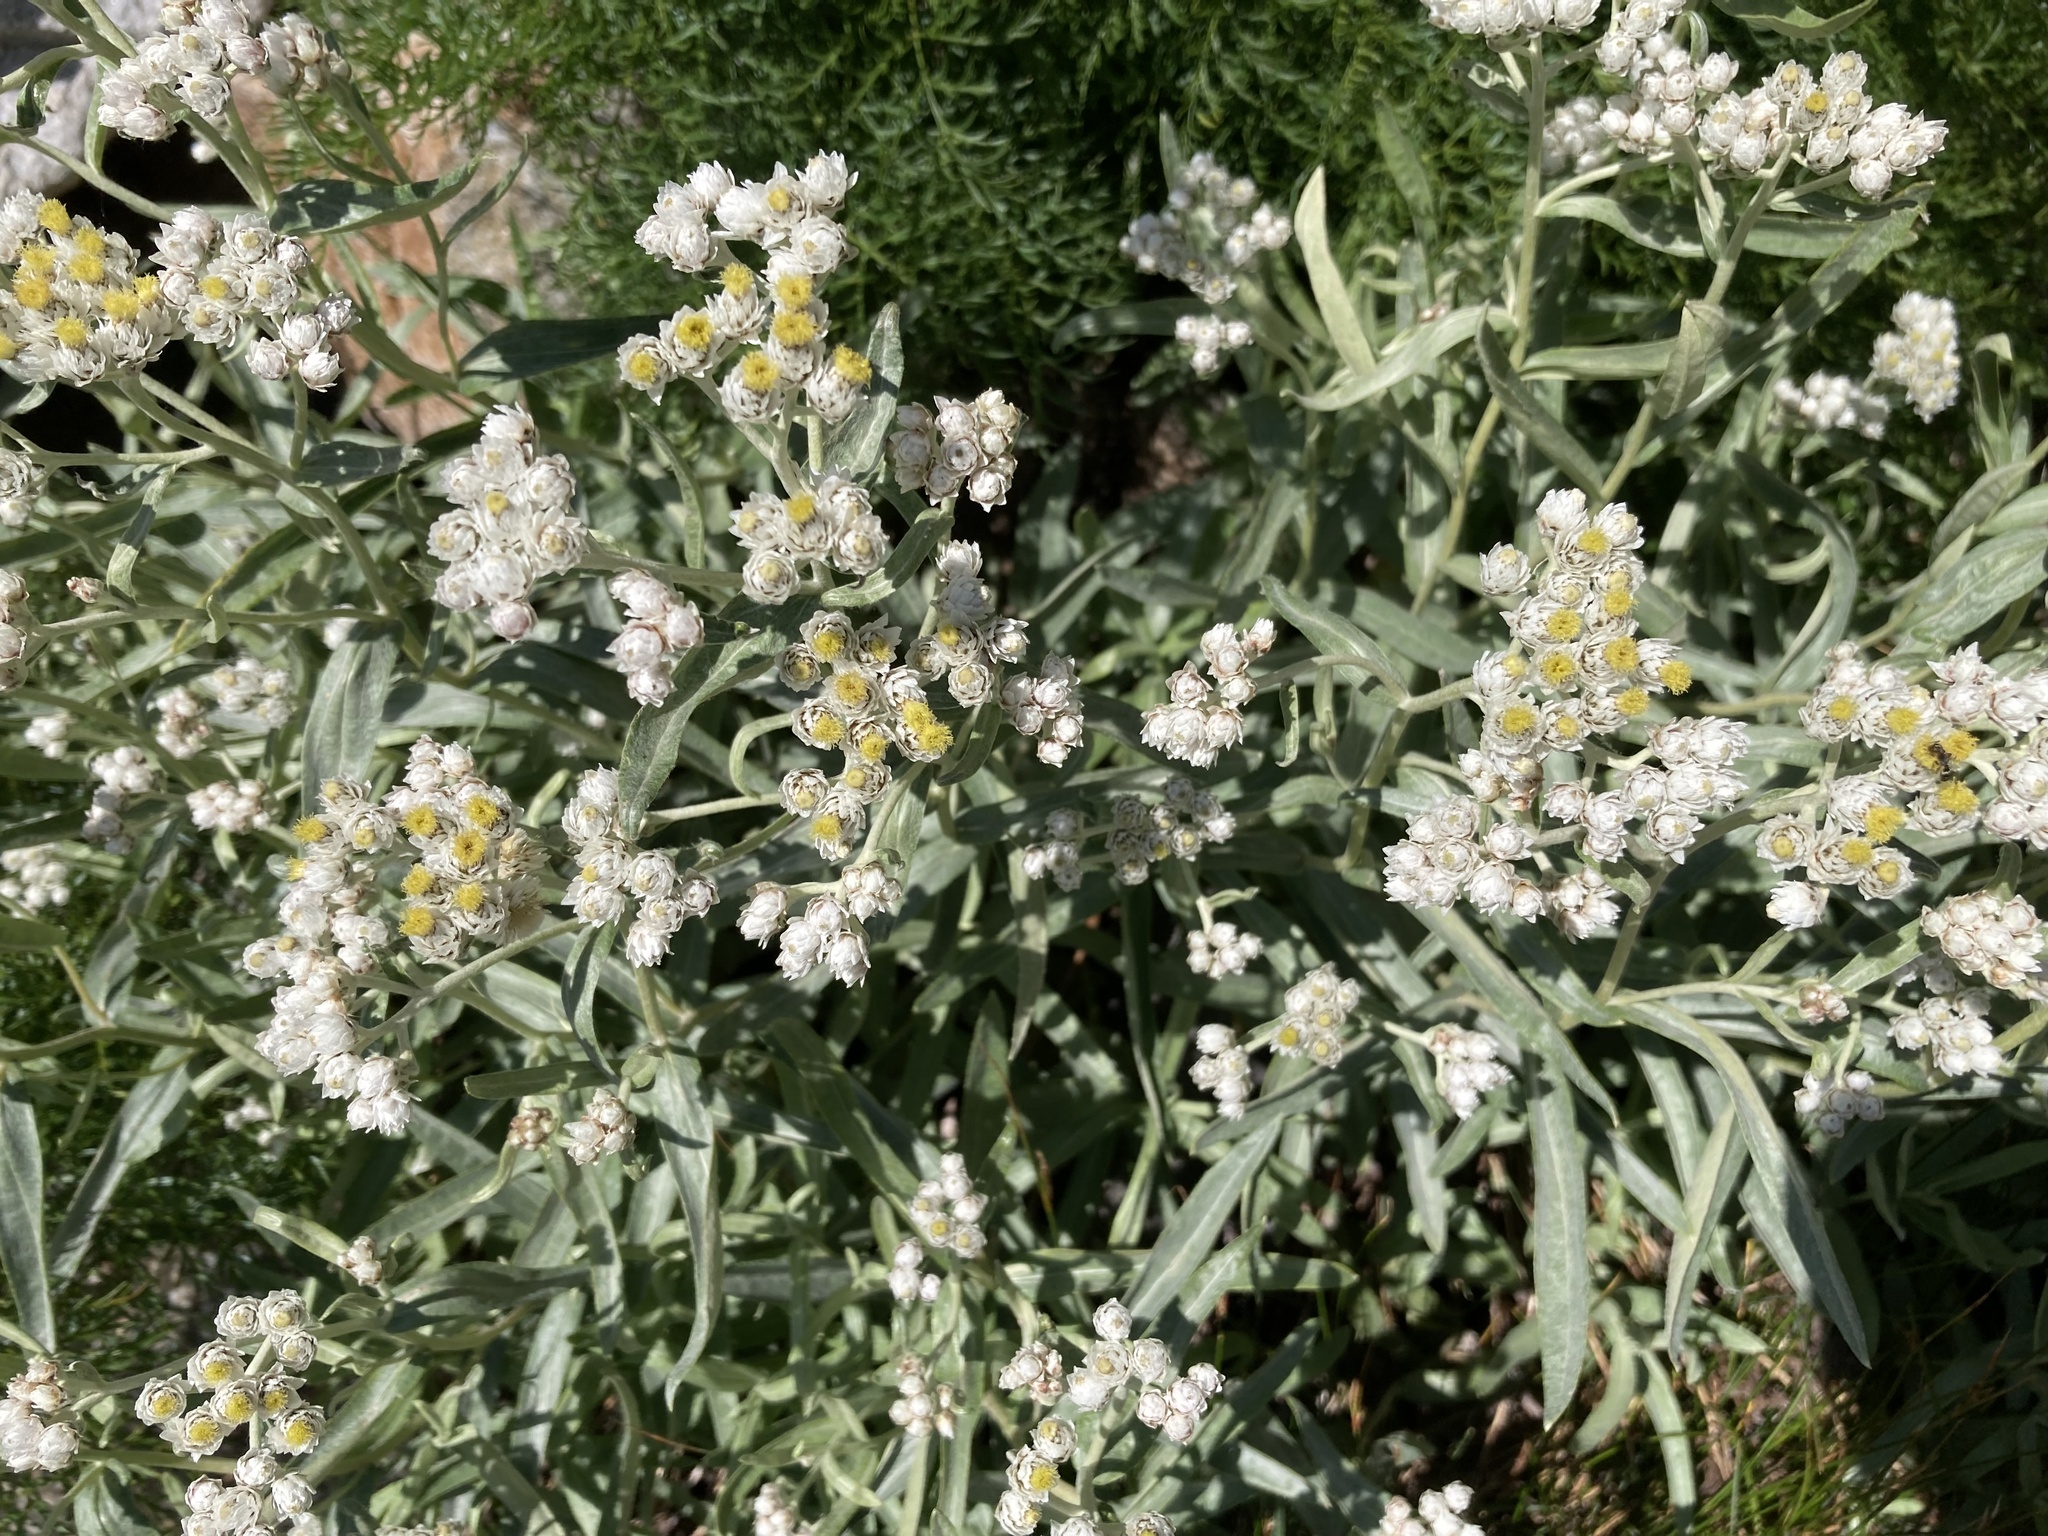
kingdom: Plantae
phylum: Tracheophyta
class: Magnoliopsida
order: Asterales
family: Asteraceae
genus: Anaphalis
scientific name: Anaphalis margaritacea
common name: Pearly everlasting
